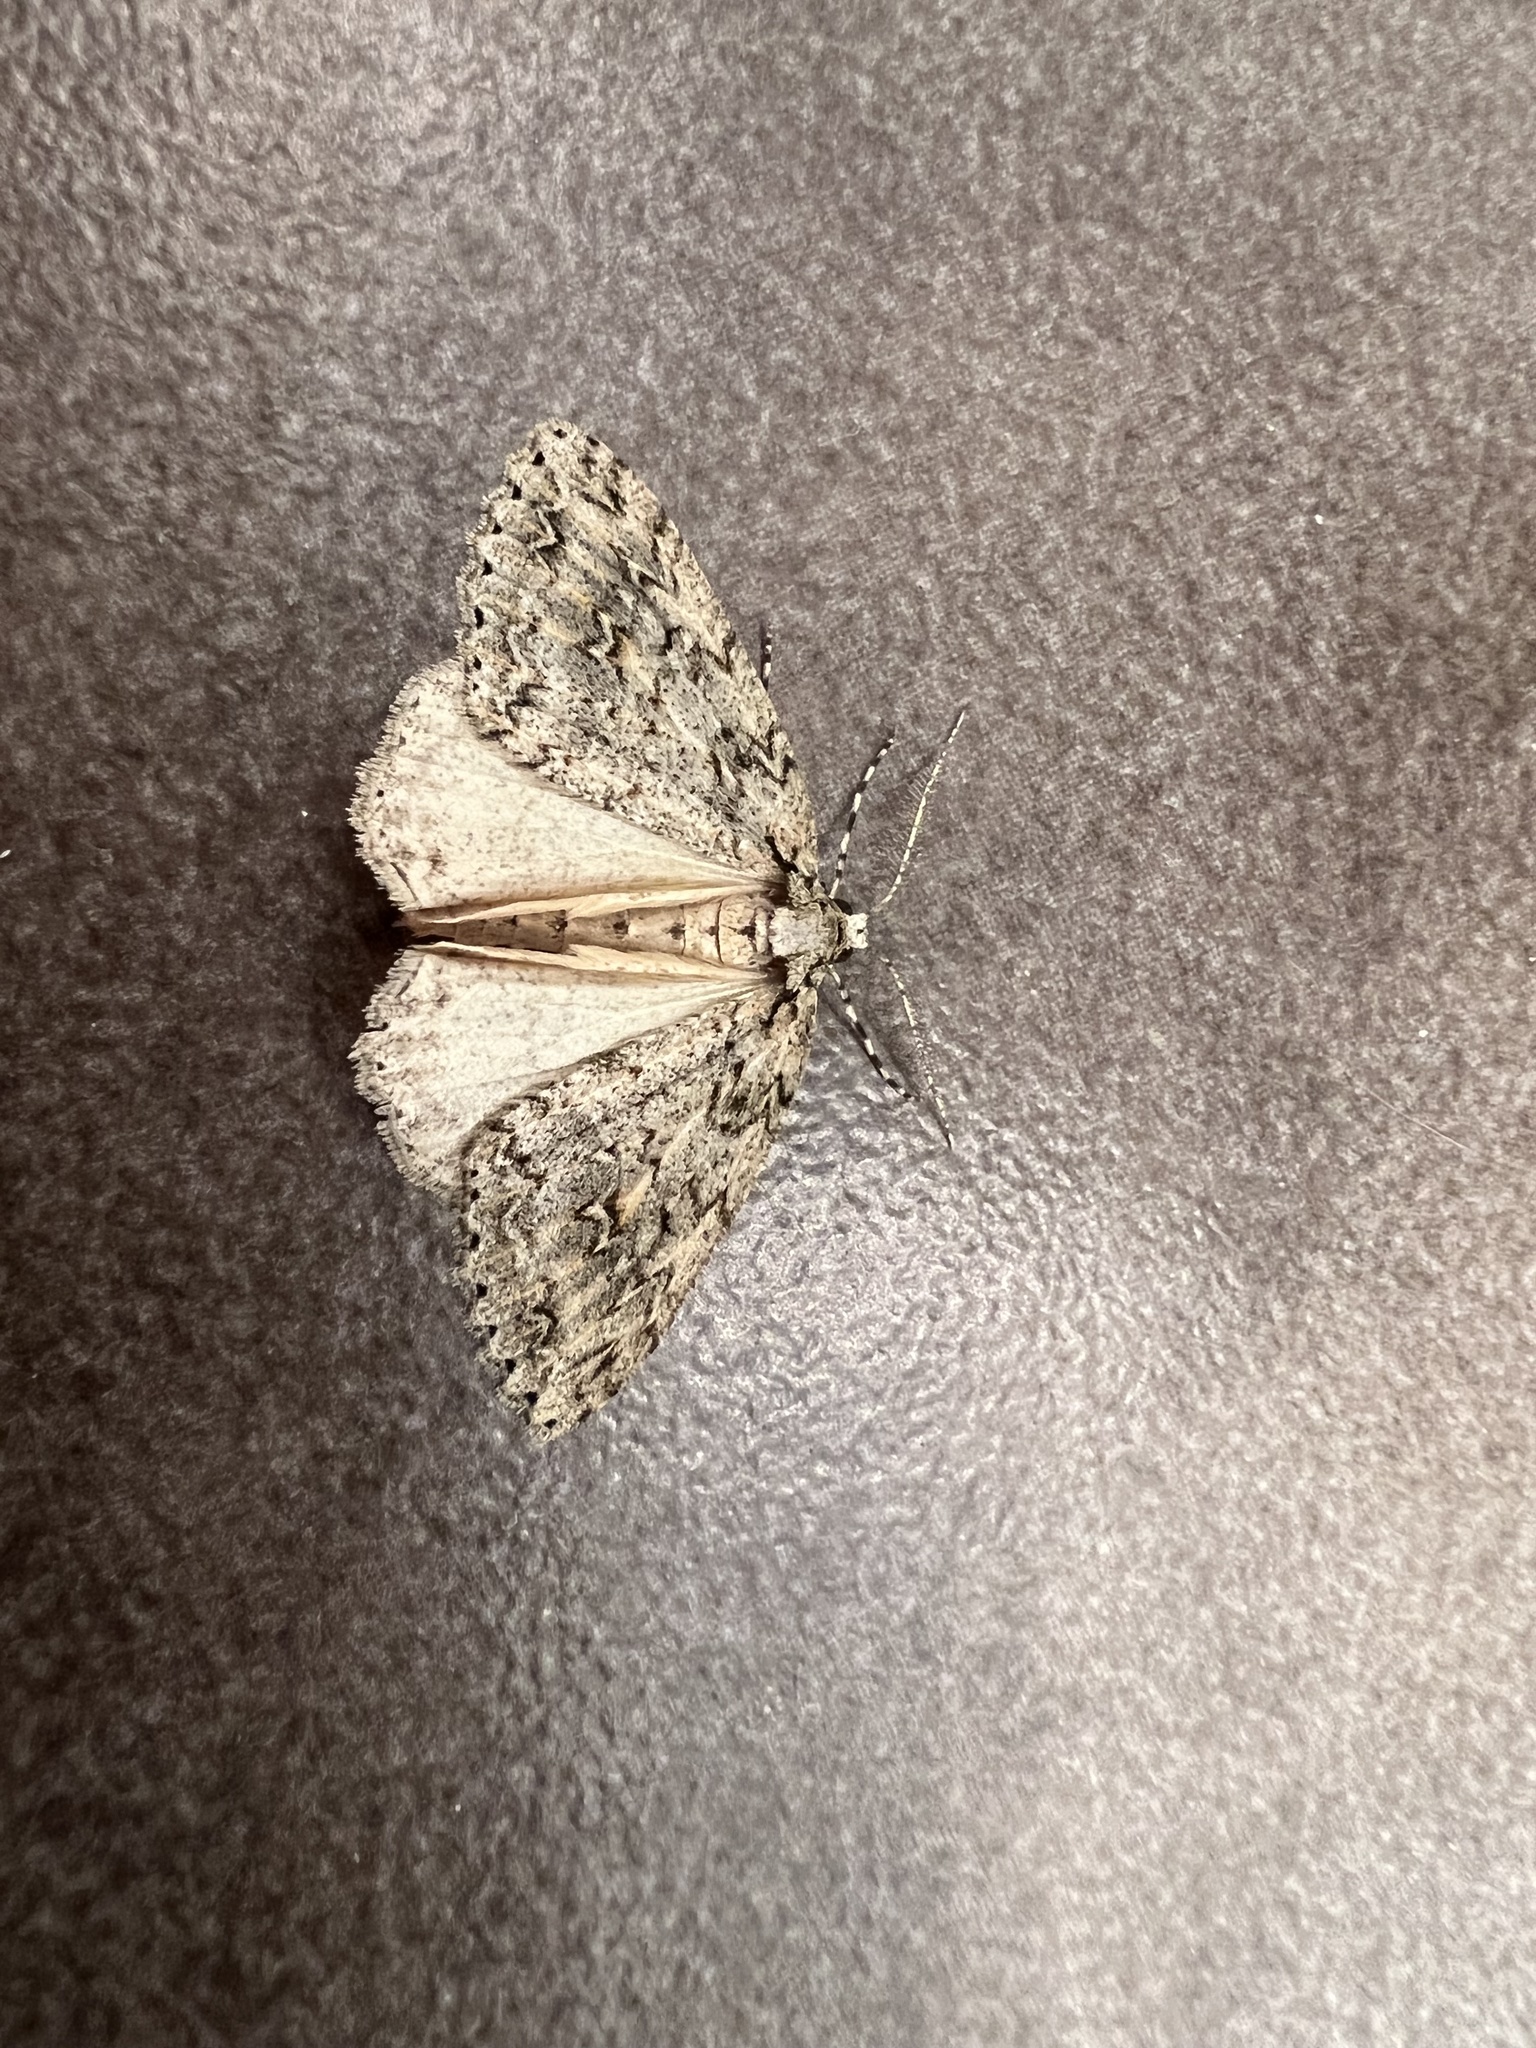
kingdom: Animalia
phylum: Arthropoda
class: Insecta
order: Lepidoptera
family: Geometridae
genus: Pseudocoremia
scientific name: Pseudocoremia rudisata
